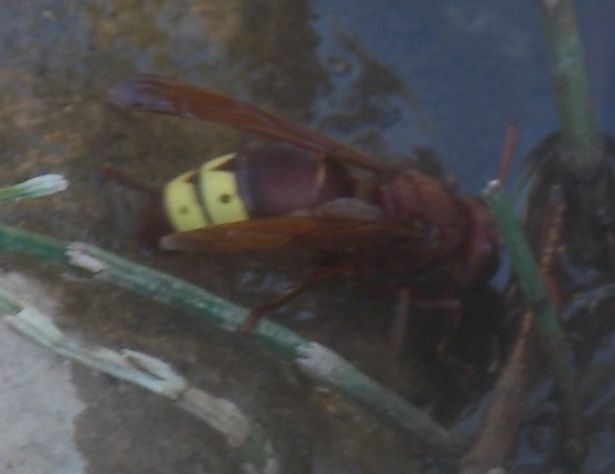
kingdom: Animalia
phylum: Arthropoda
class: Insecta
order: Hymenoptera
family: Vespidae
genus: Vespa
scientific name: Vespa orientalis
